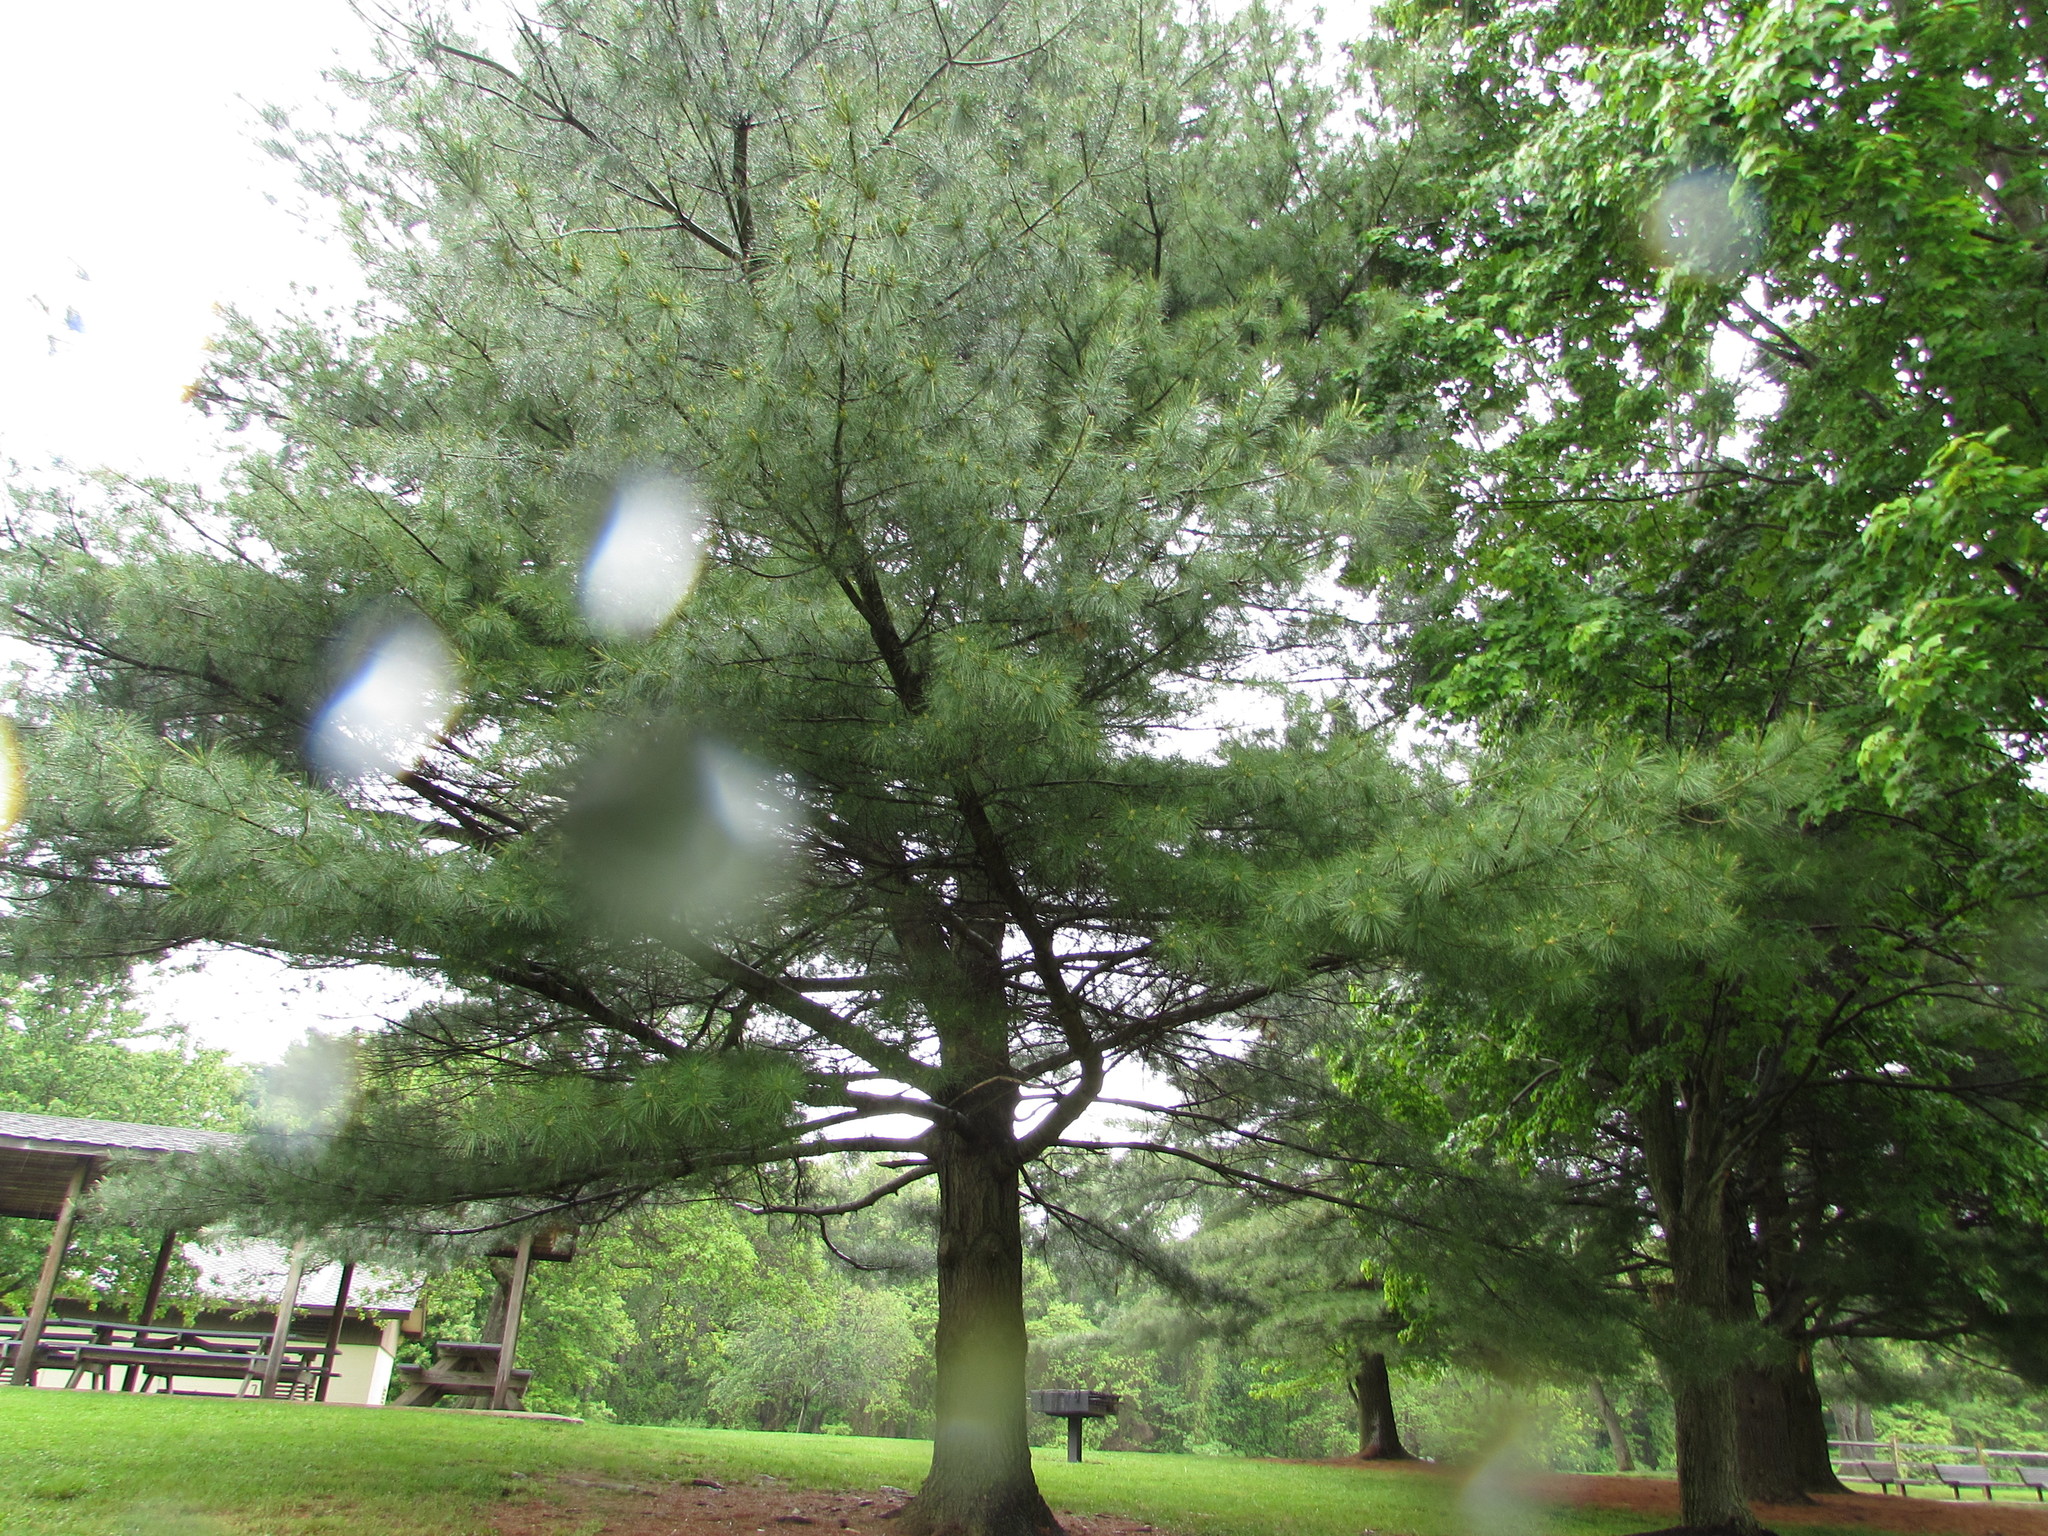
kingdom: Plantae
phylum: Tracheophyta
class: Pinopsida
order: Pinales
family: Pinaceae
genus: Pinus
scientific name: Pinus strobus
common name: Weymouth pine
